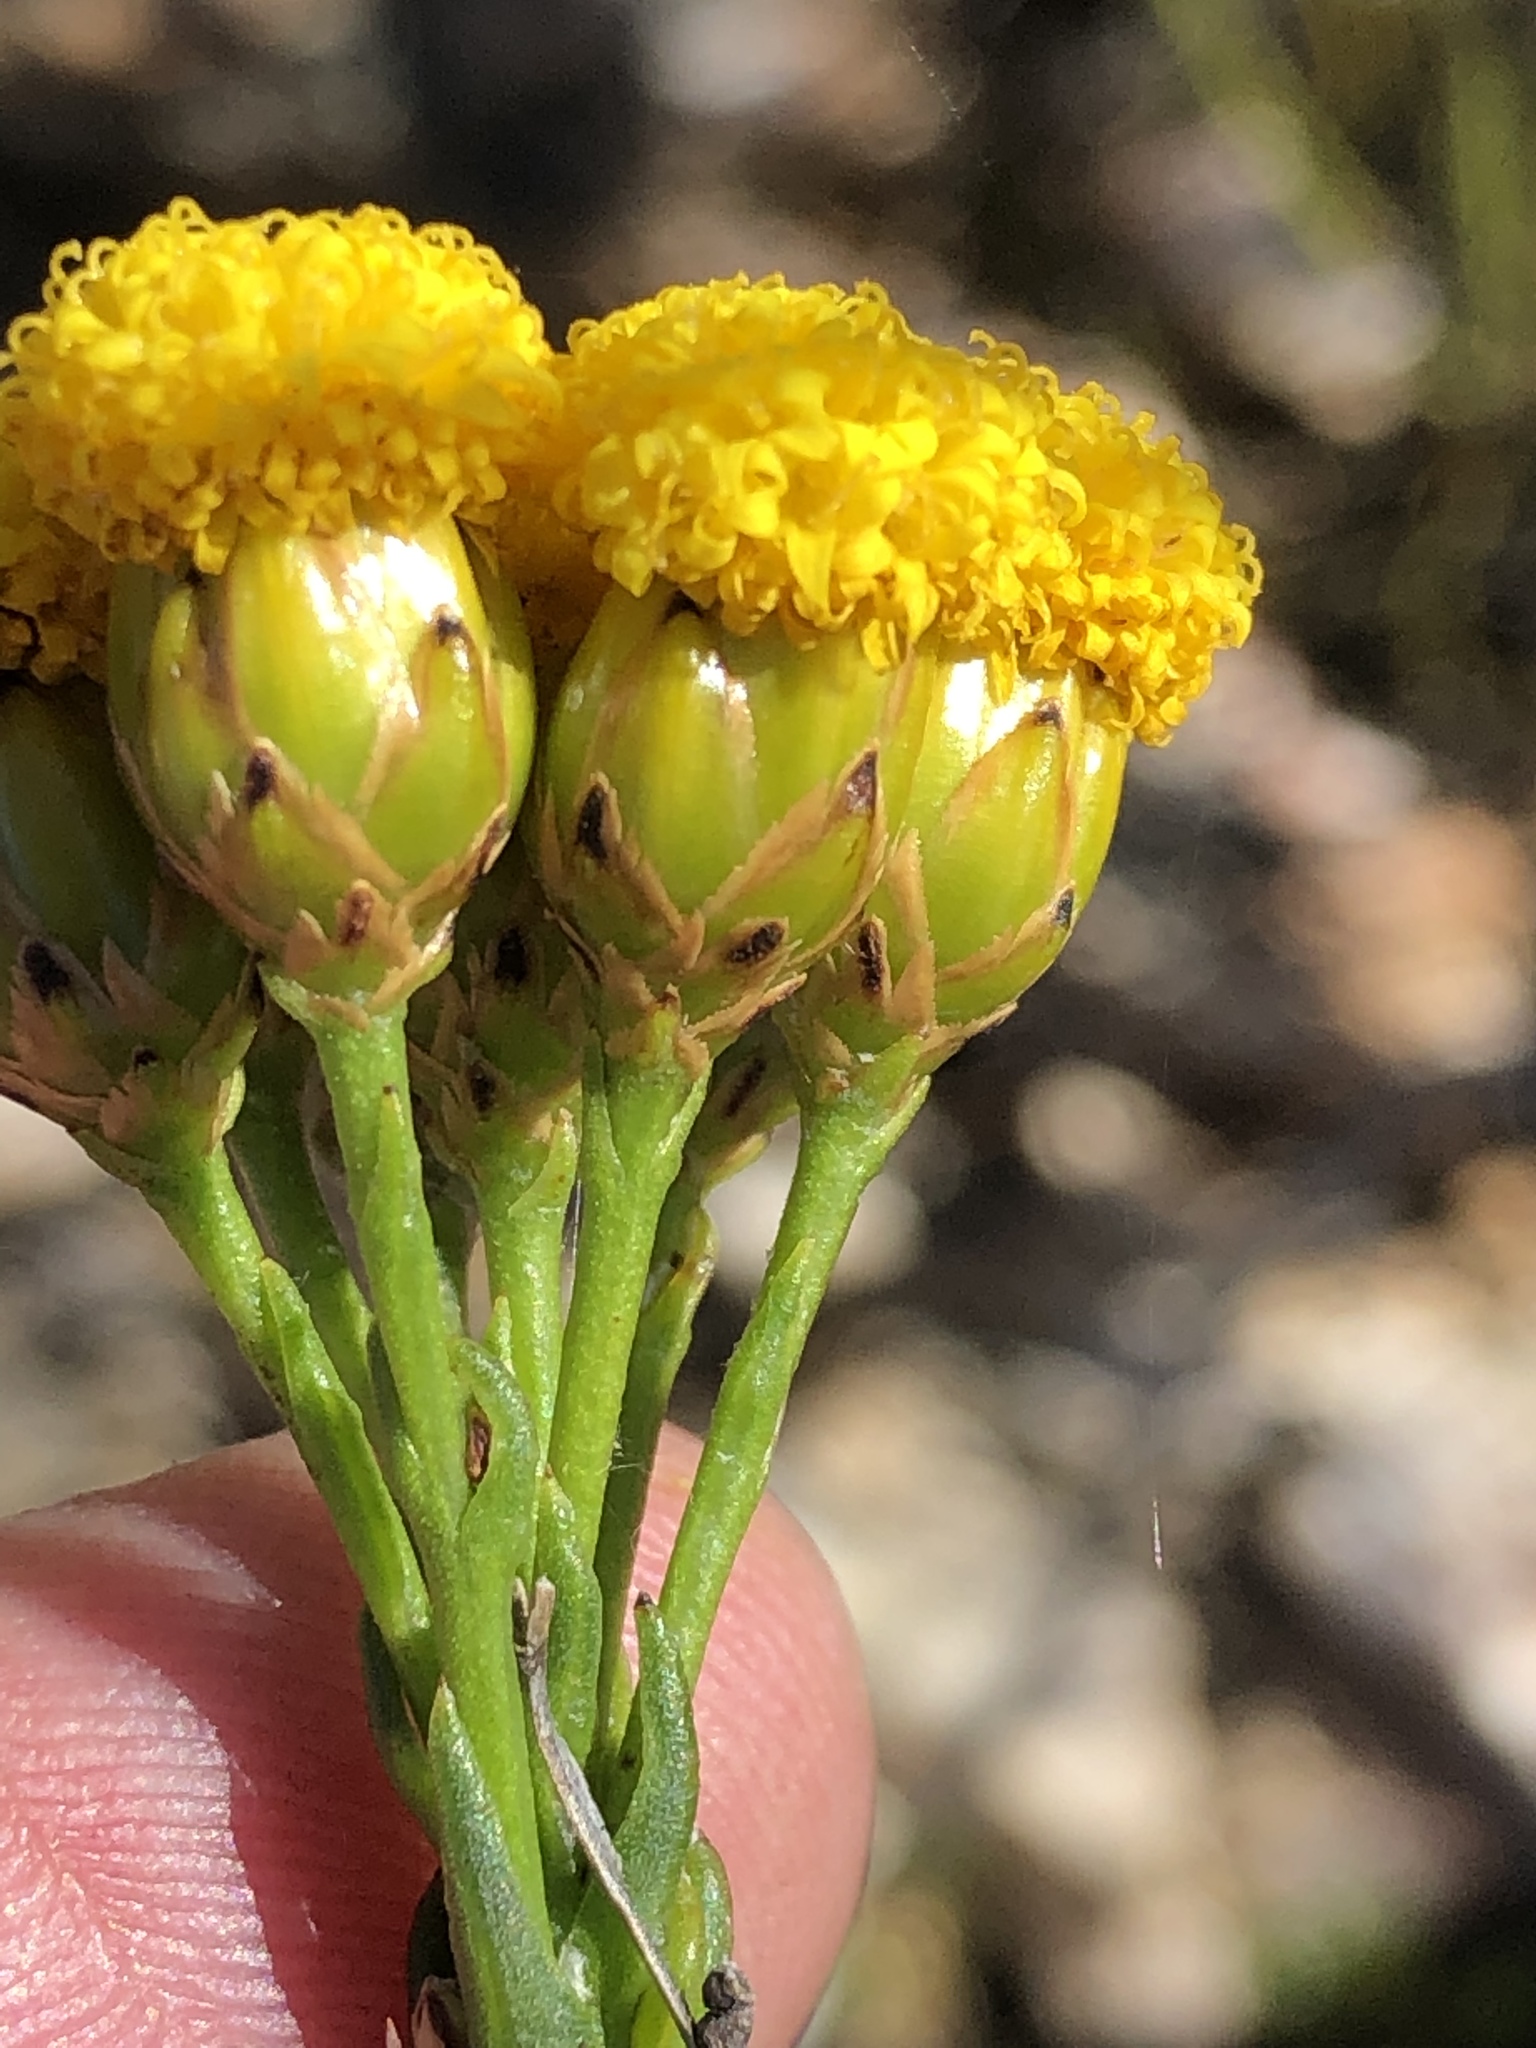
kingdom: Plantae
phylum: Tracheophyta
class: Magnoliopsida
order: Asterales
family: Asteraceae
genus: Athanasia
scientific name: Athanasia linifolia
